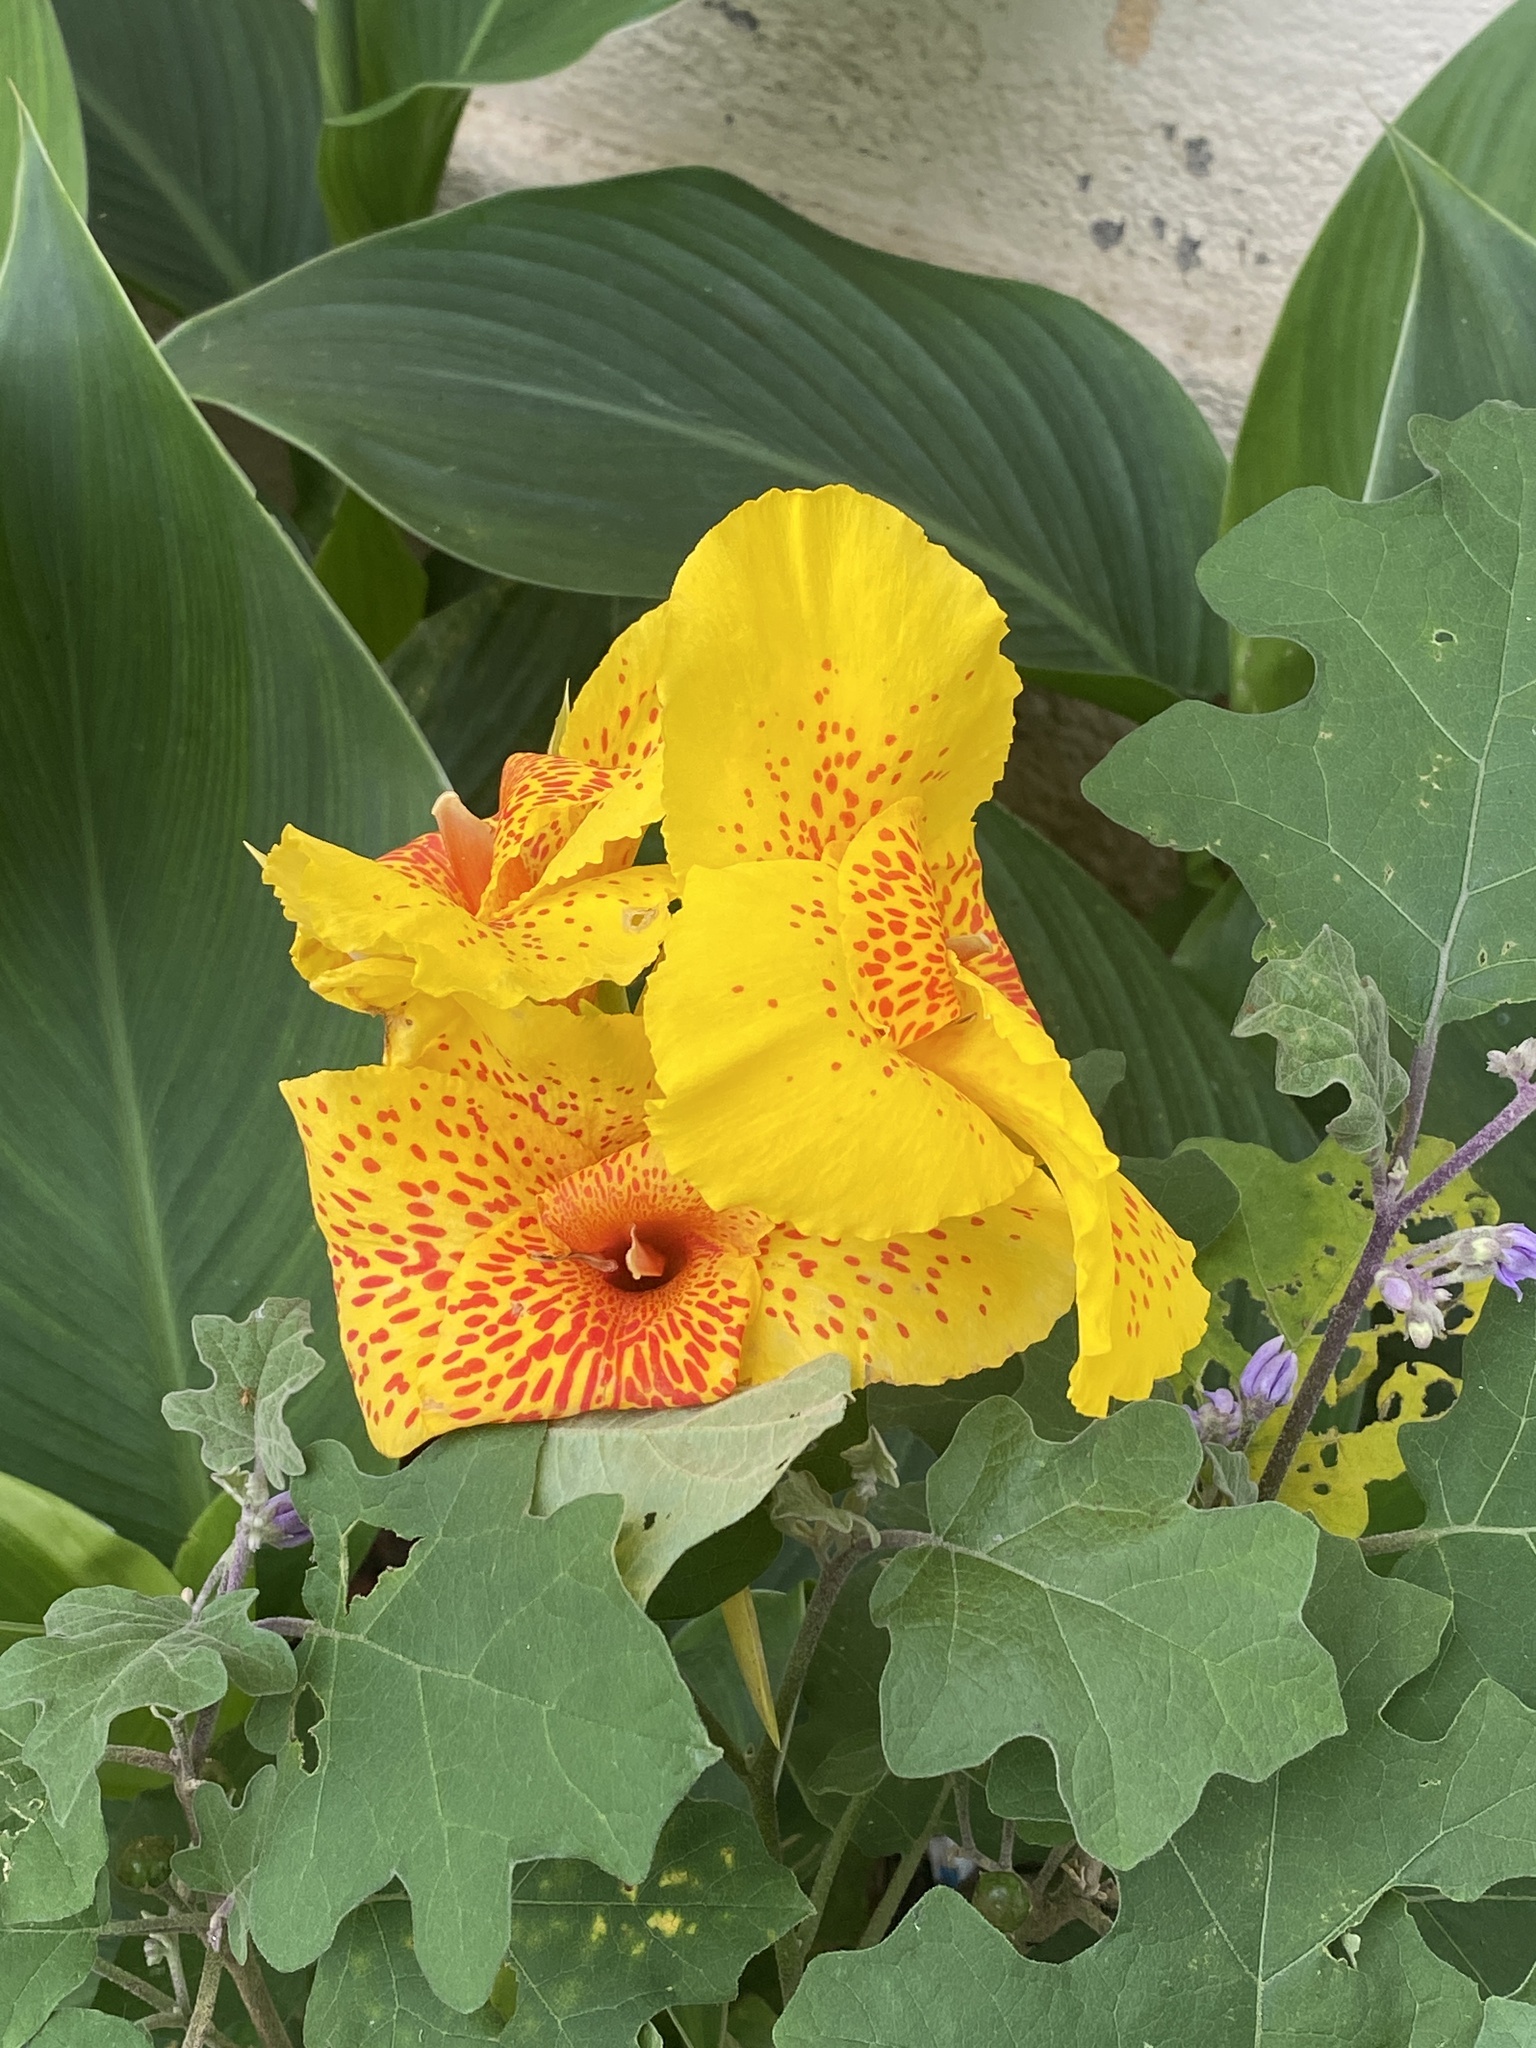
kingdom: Plantae
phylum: Tracheophyta
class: Liliopsida
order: Zingiberales
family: Cannaceae
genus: Canna
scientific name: Canna hybrida
